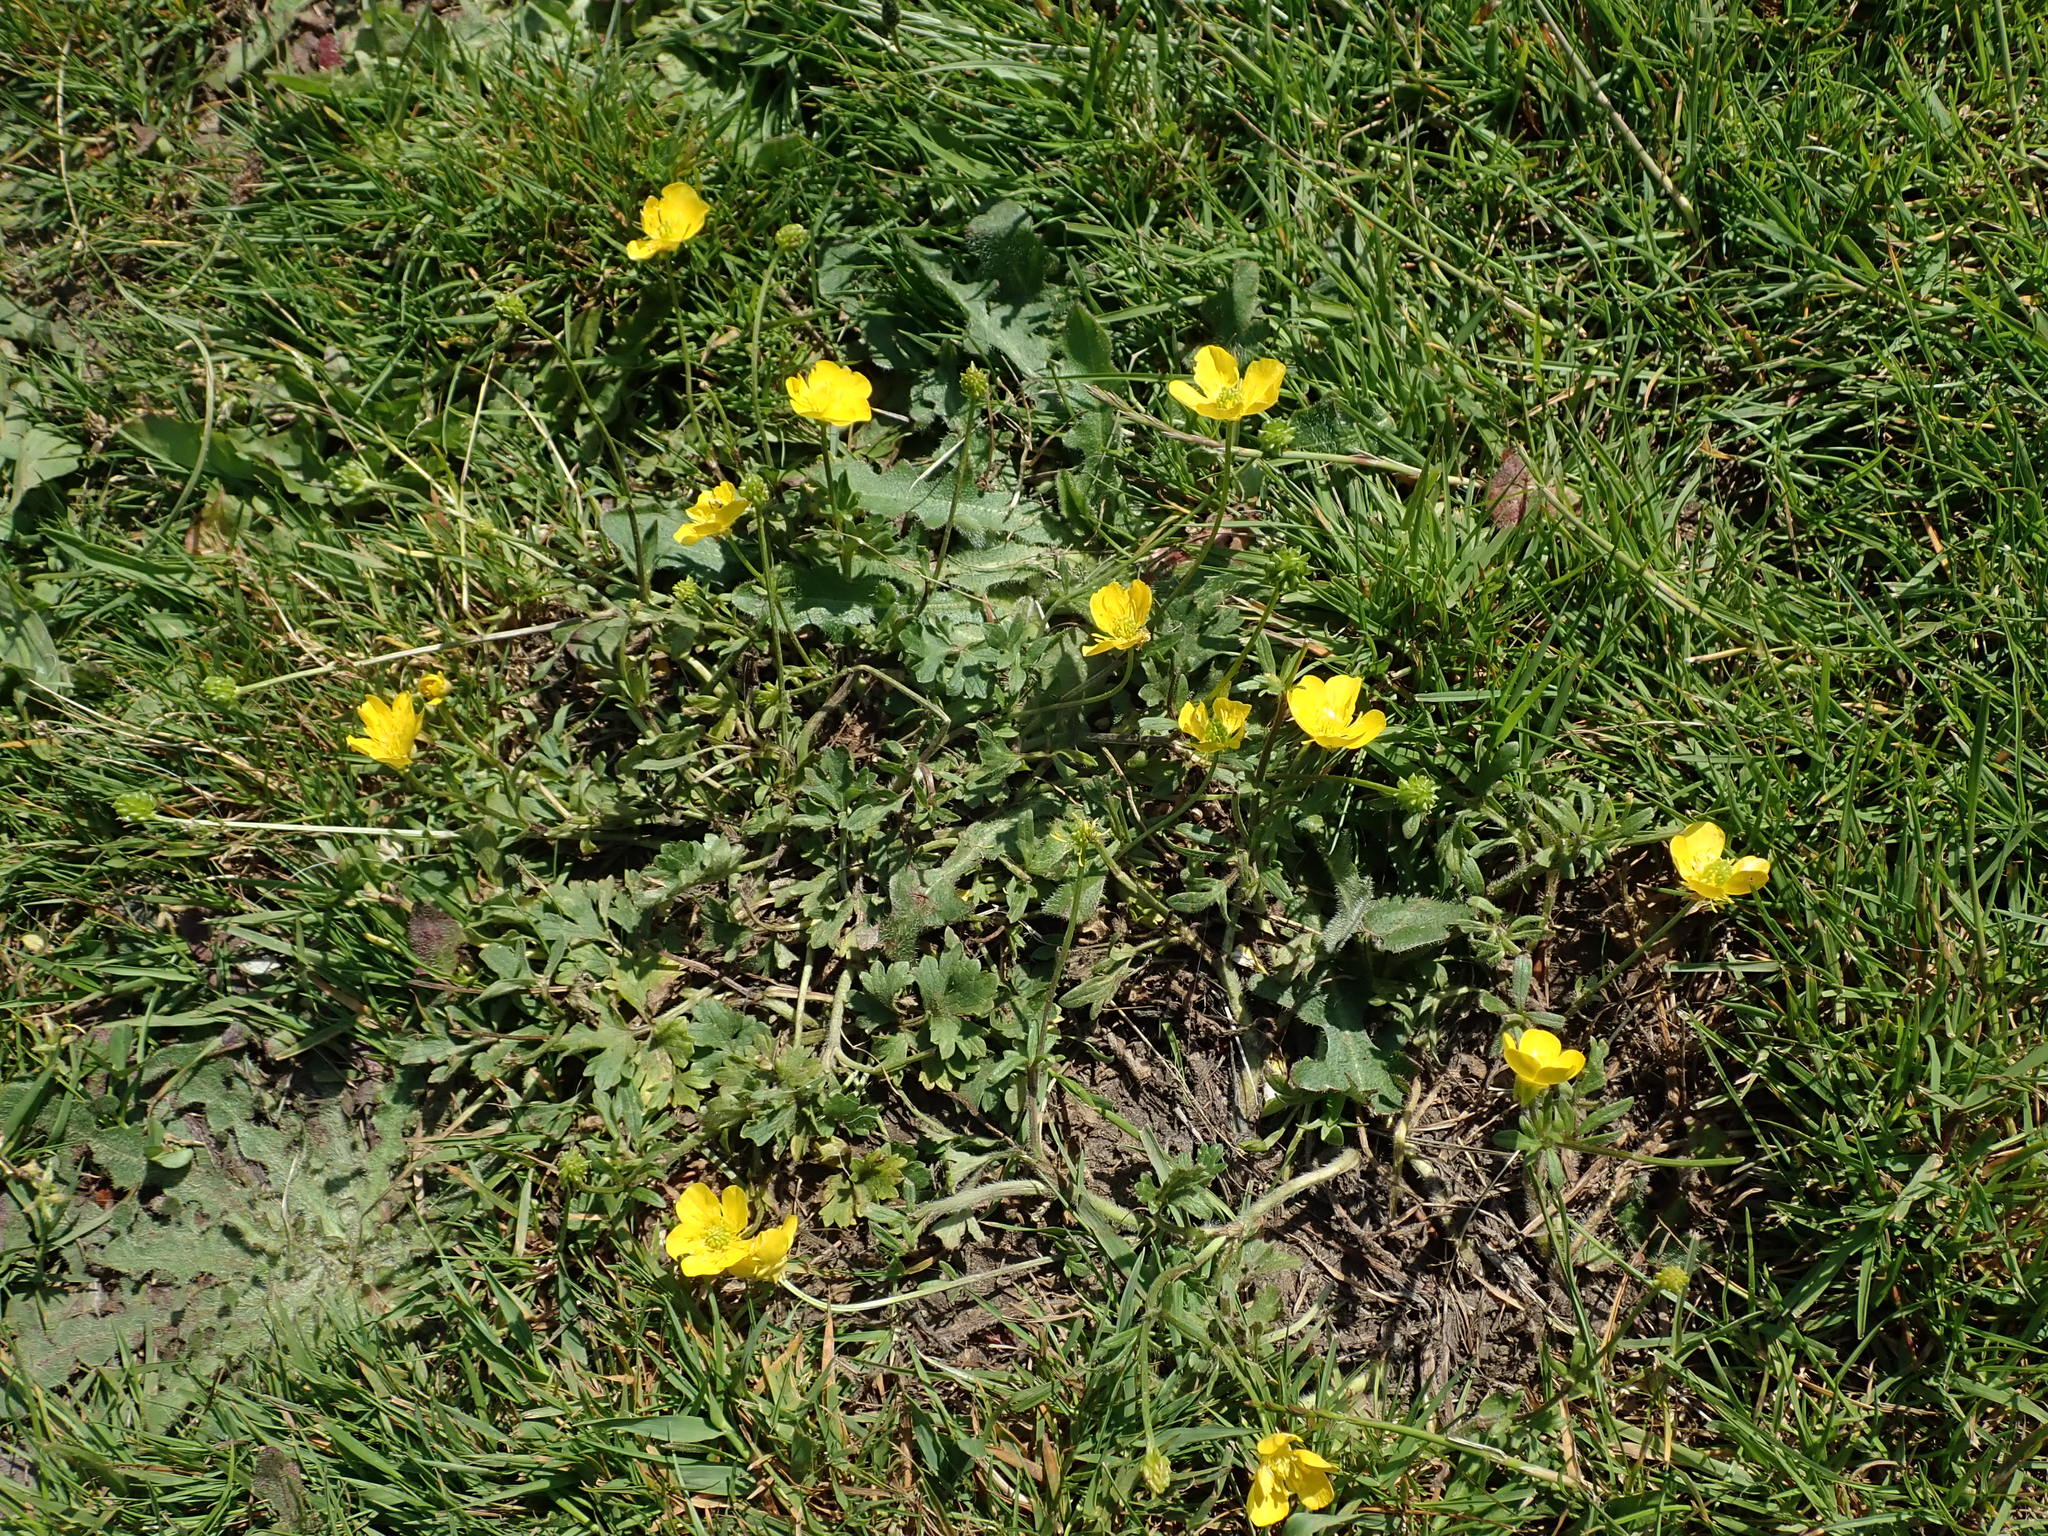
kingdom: Plantae
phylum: Tracheophyta
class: Magnoliopsida
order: Ranunculales
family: Ranunculaceae
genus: Ranunculus
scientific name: Ranunculus bulbosus
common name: Bulbous buttercup
